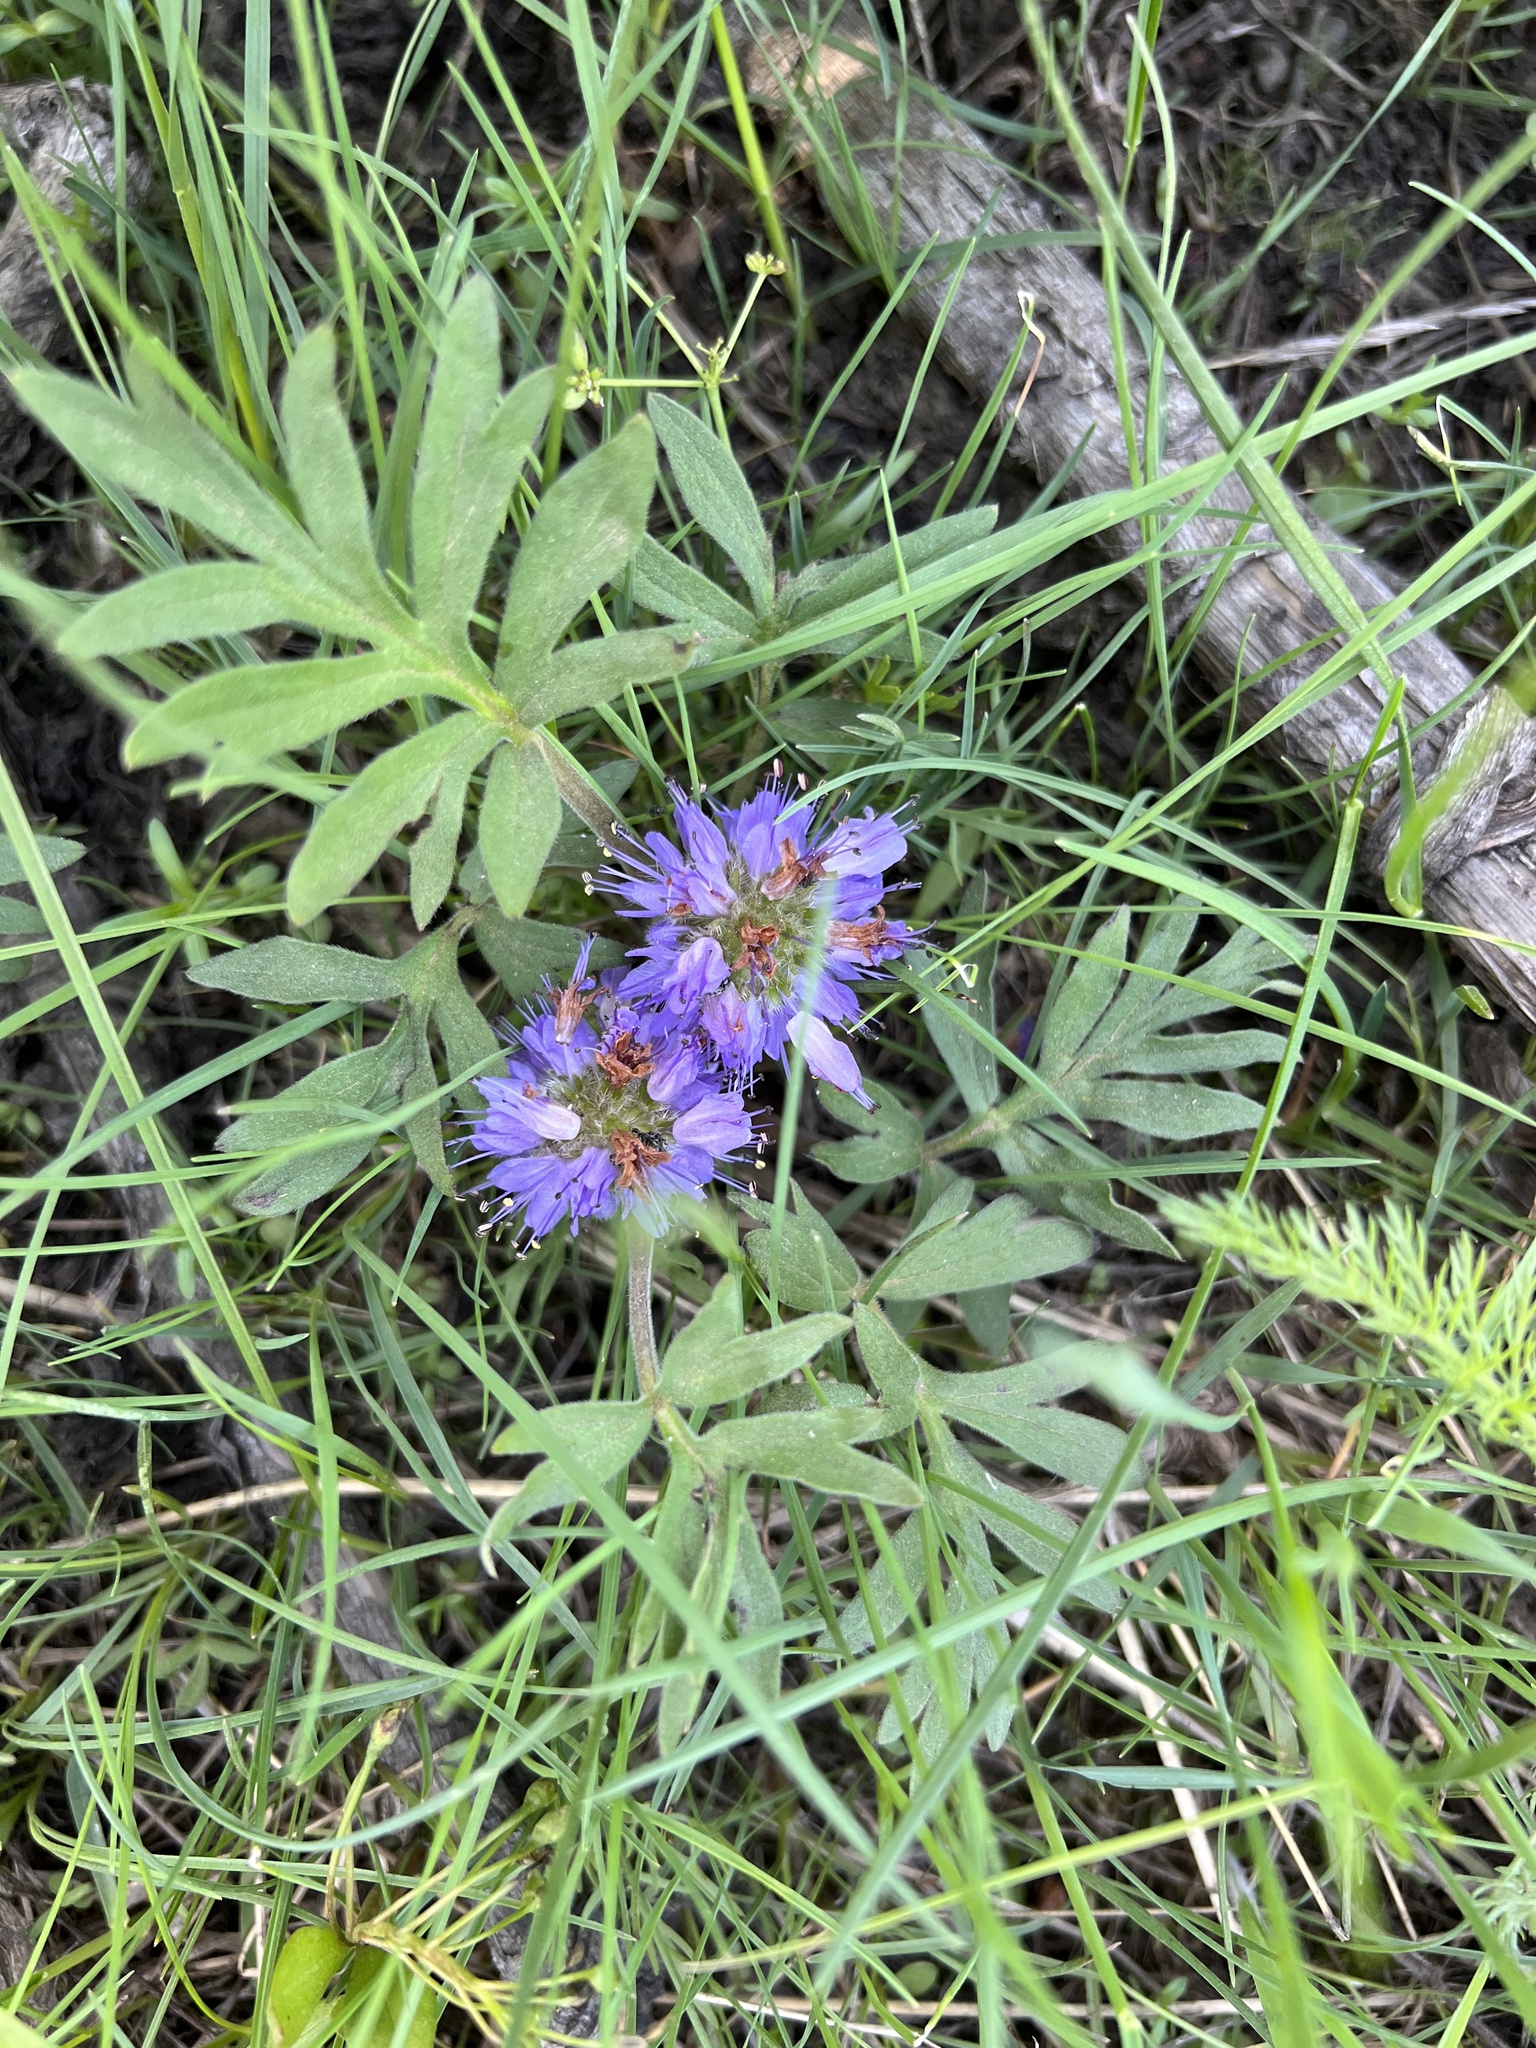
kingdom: Plantae
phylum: Tracheophyta
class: Magnoliopsida
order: Boraginales
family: Hydrophyllaceae
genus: Hydrophyllum
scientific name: Hydrophyllum capitatum
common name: Woollen-breeches
